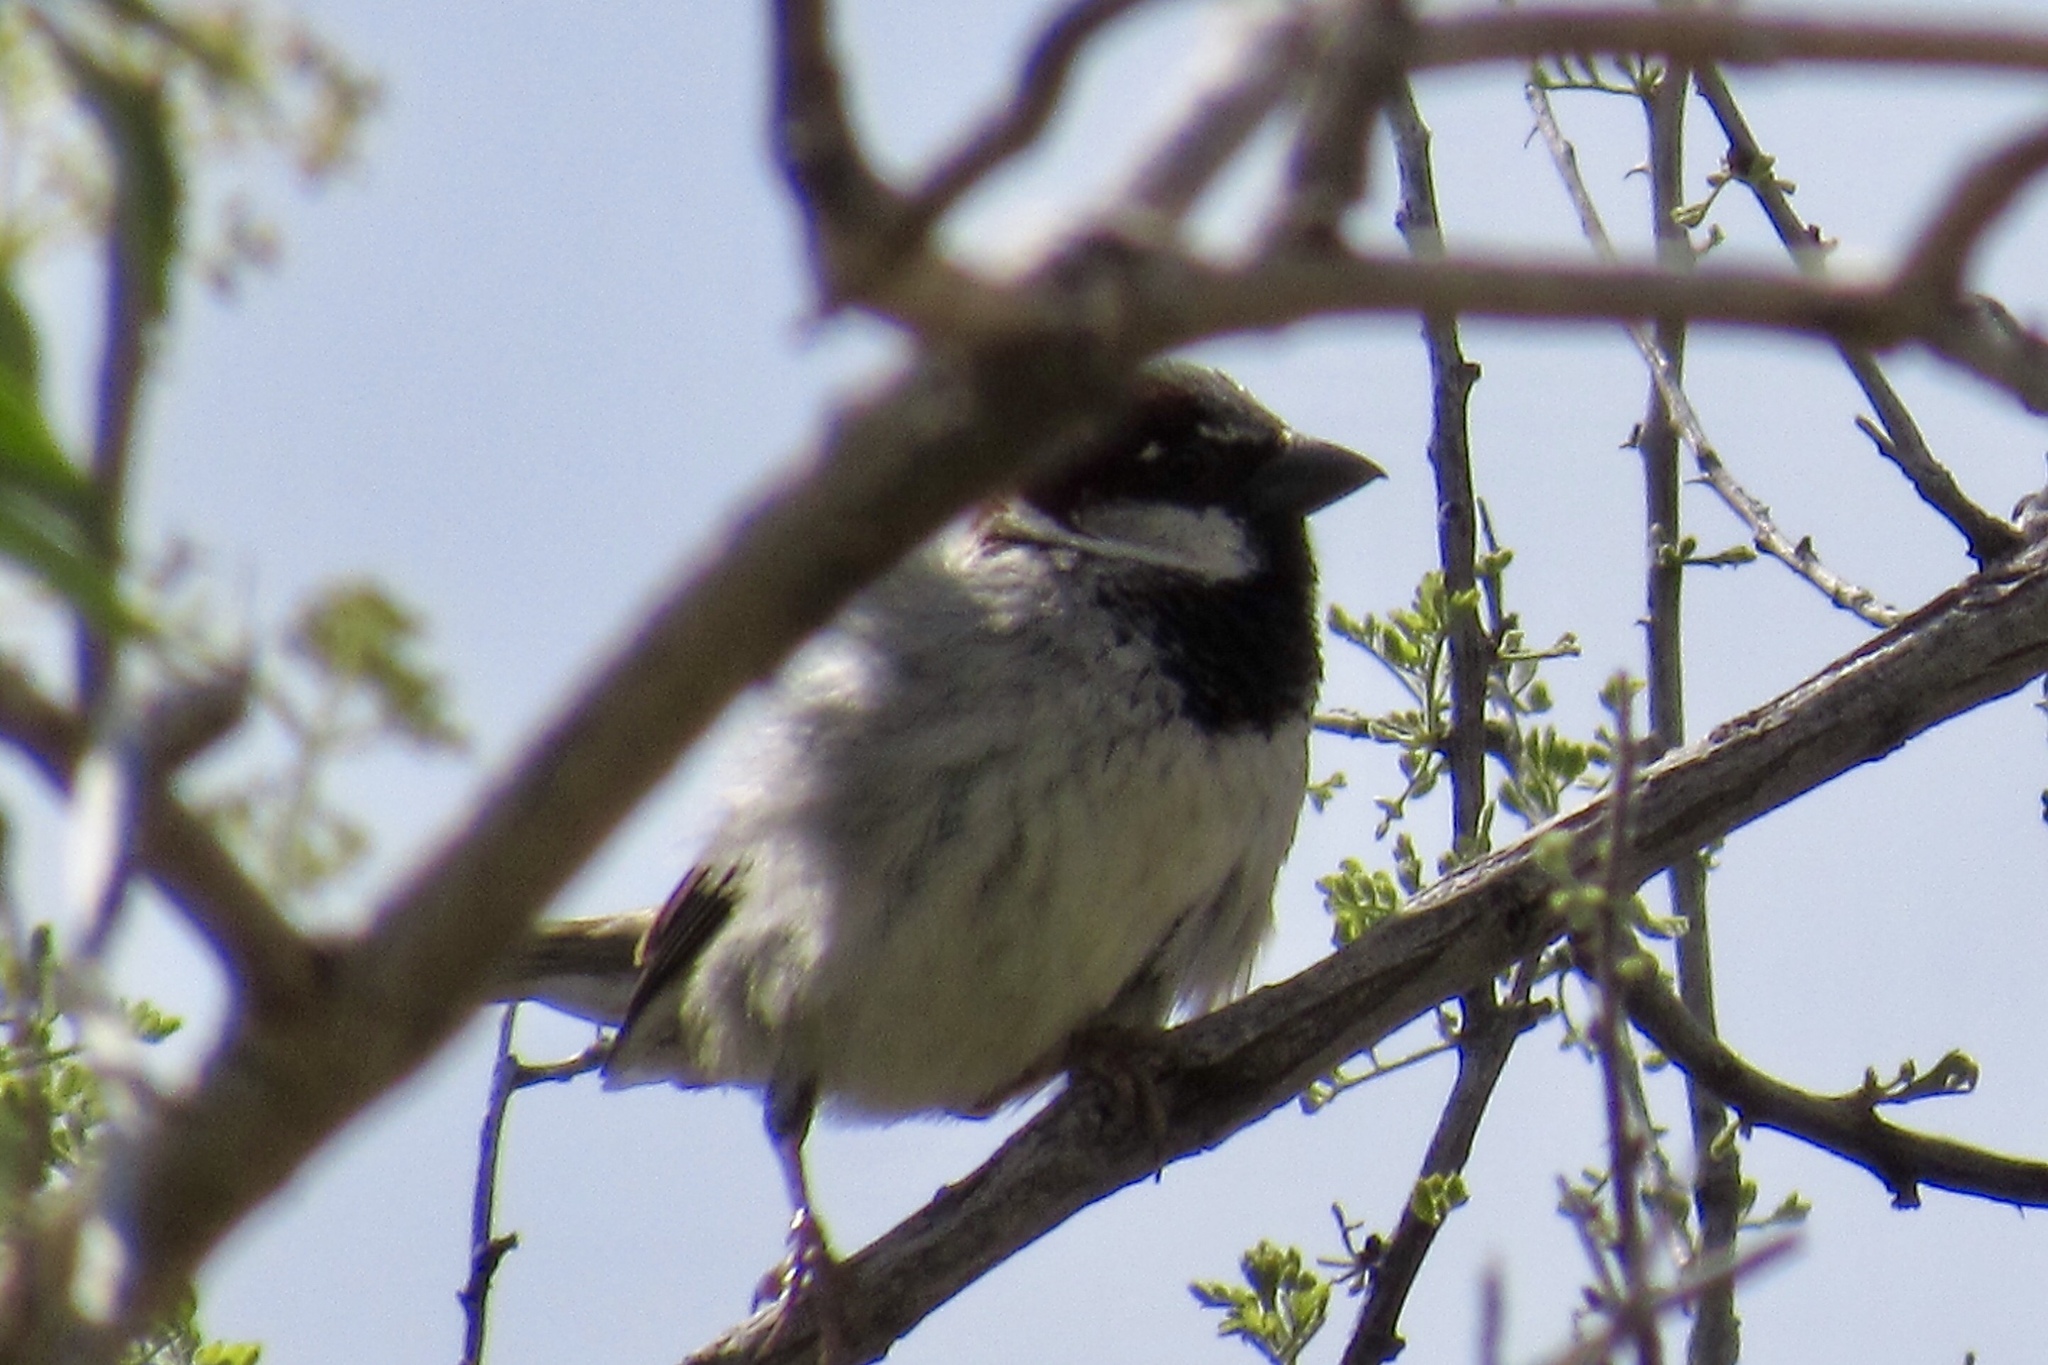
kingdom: Animalia
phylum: Chordata
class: Aves
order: Passeriformes
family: Passeridae
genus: Passer
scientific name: Passer domesticus
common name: House sparrow
